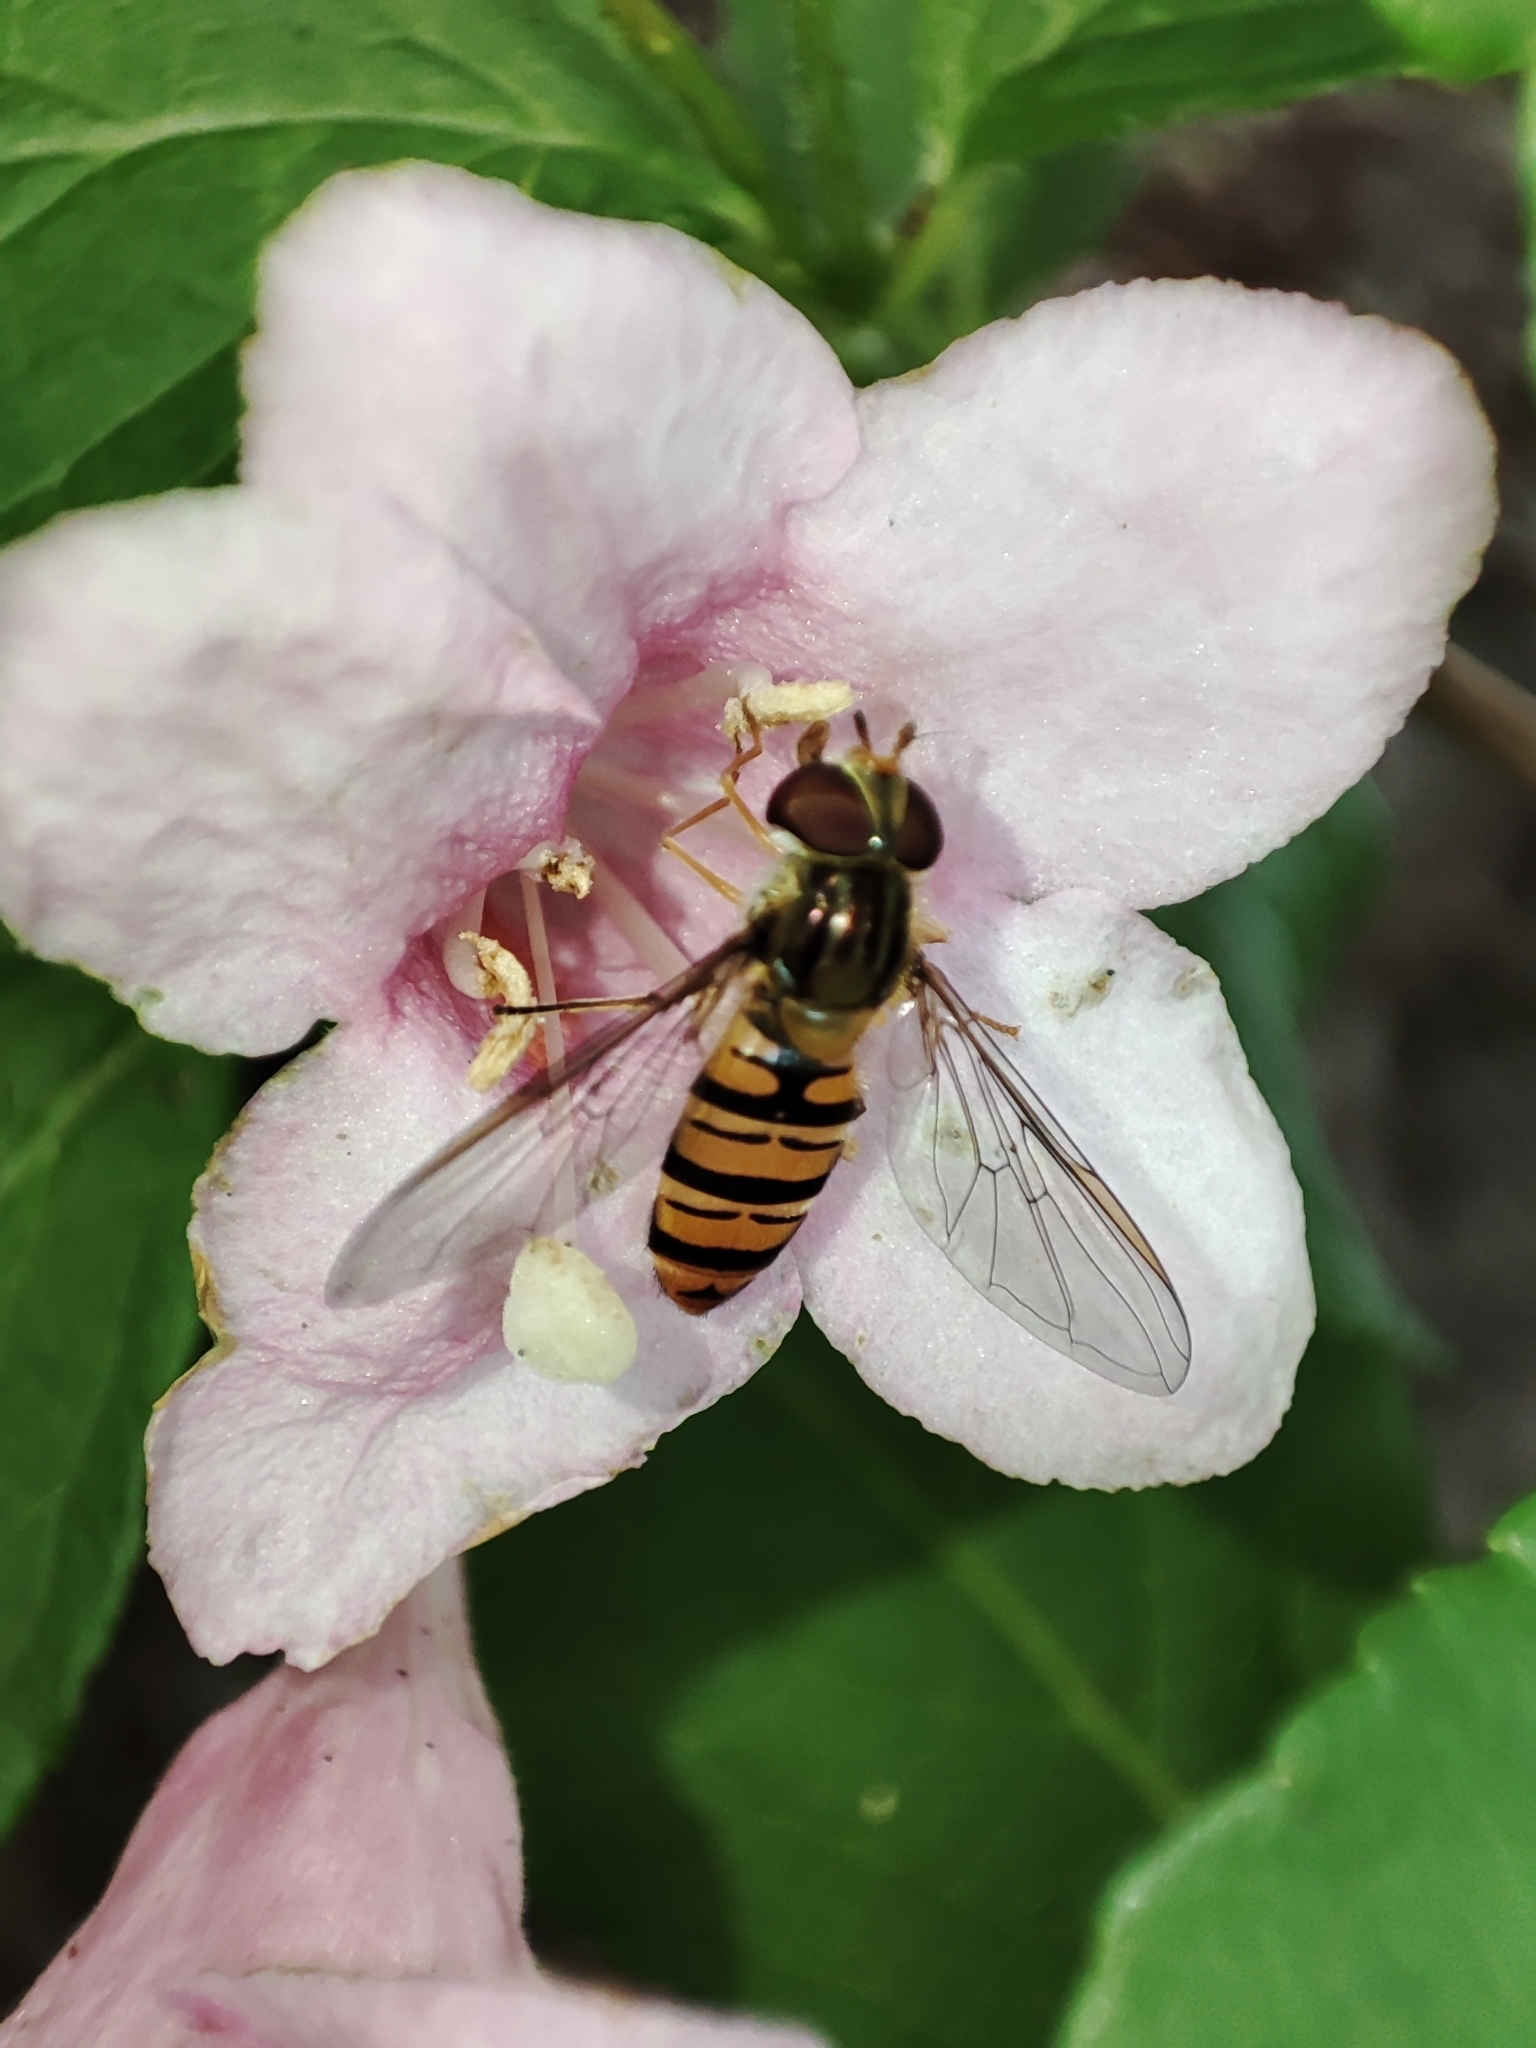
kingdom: Animalia
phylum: Arthropoda
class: Insecta
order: Diptera
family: Syrphidae
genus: Episyrphus
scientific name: Episyrphus balteatus
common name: Marmalade hoverfly
